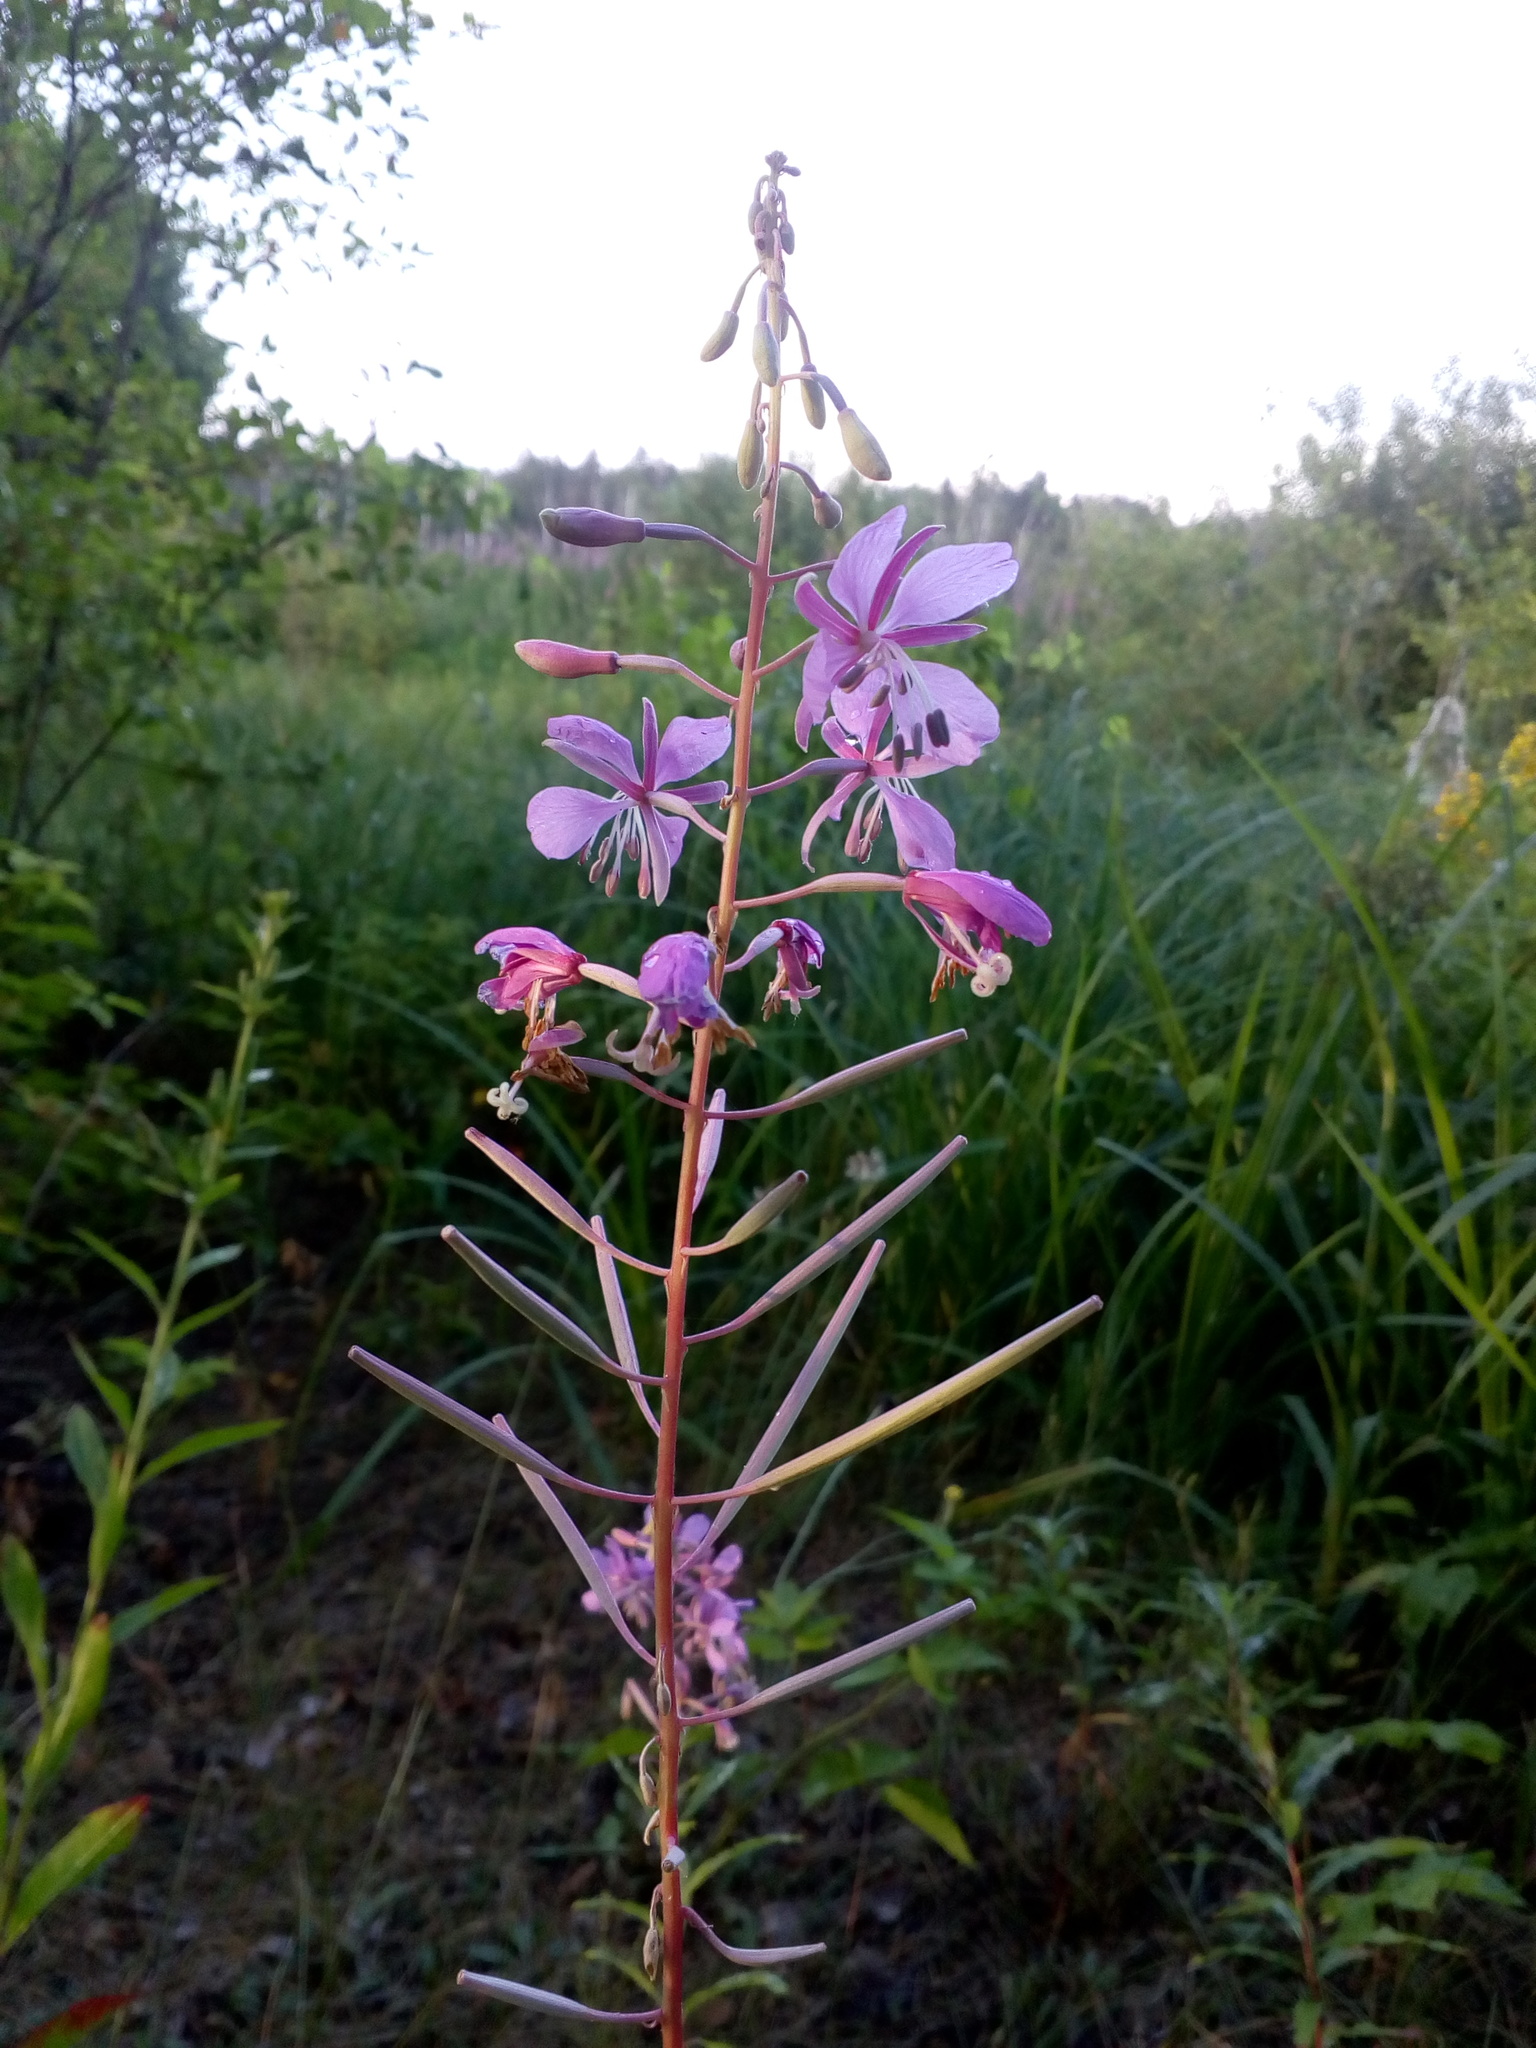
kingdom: Plantae
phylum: Tracheophyta
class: Magnoliopsida
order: Myrtales
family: Onagraceae
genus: Chamaenerion
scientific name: Chamaenerion angustifolium
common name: Fireweed
